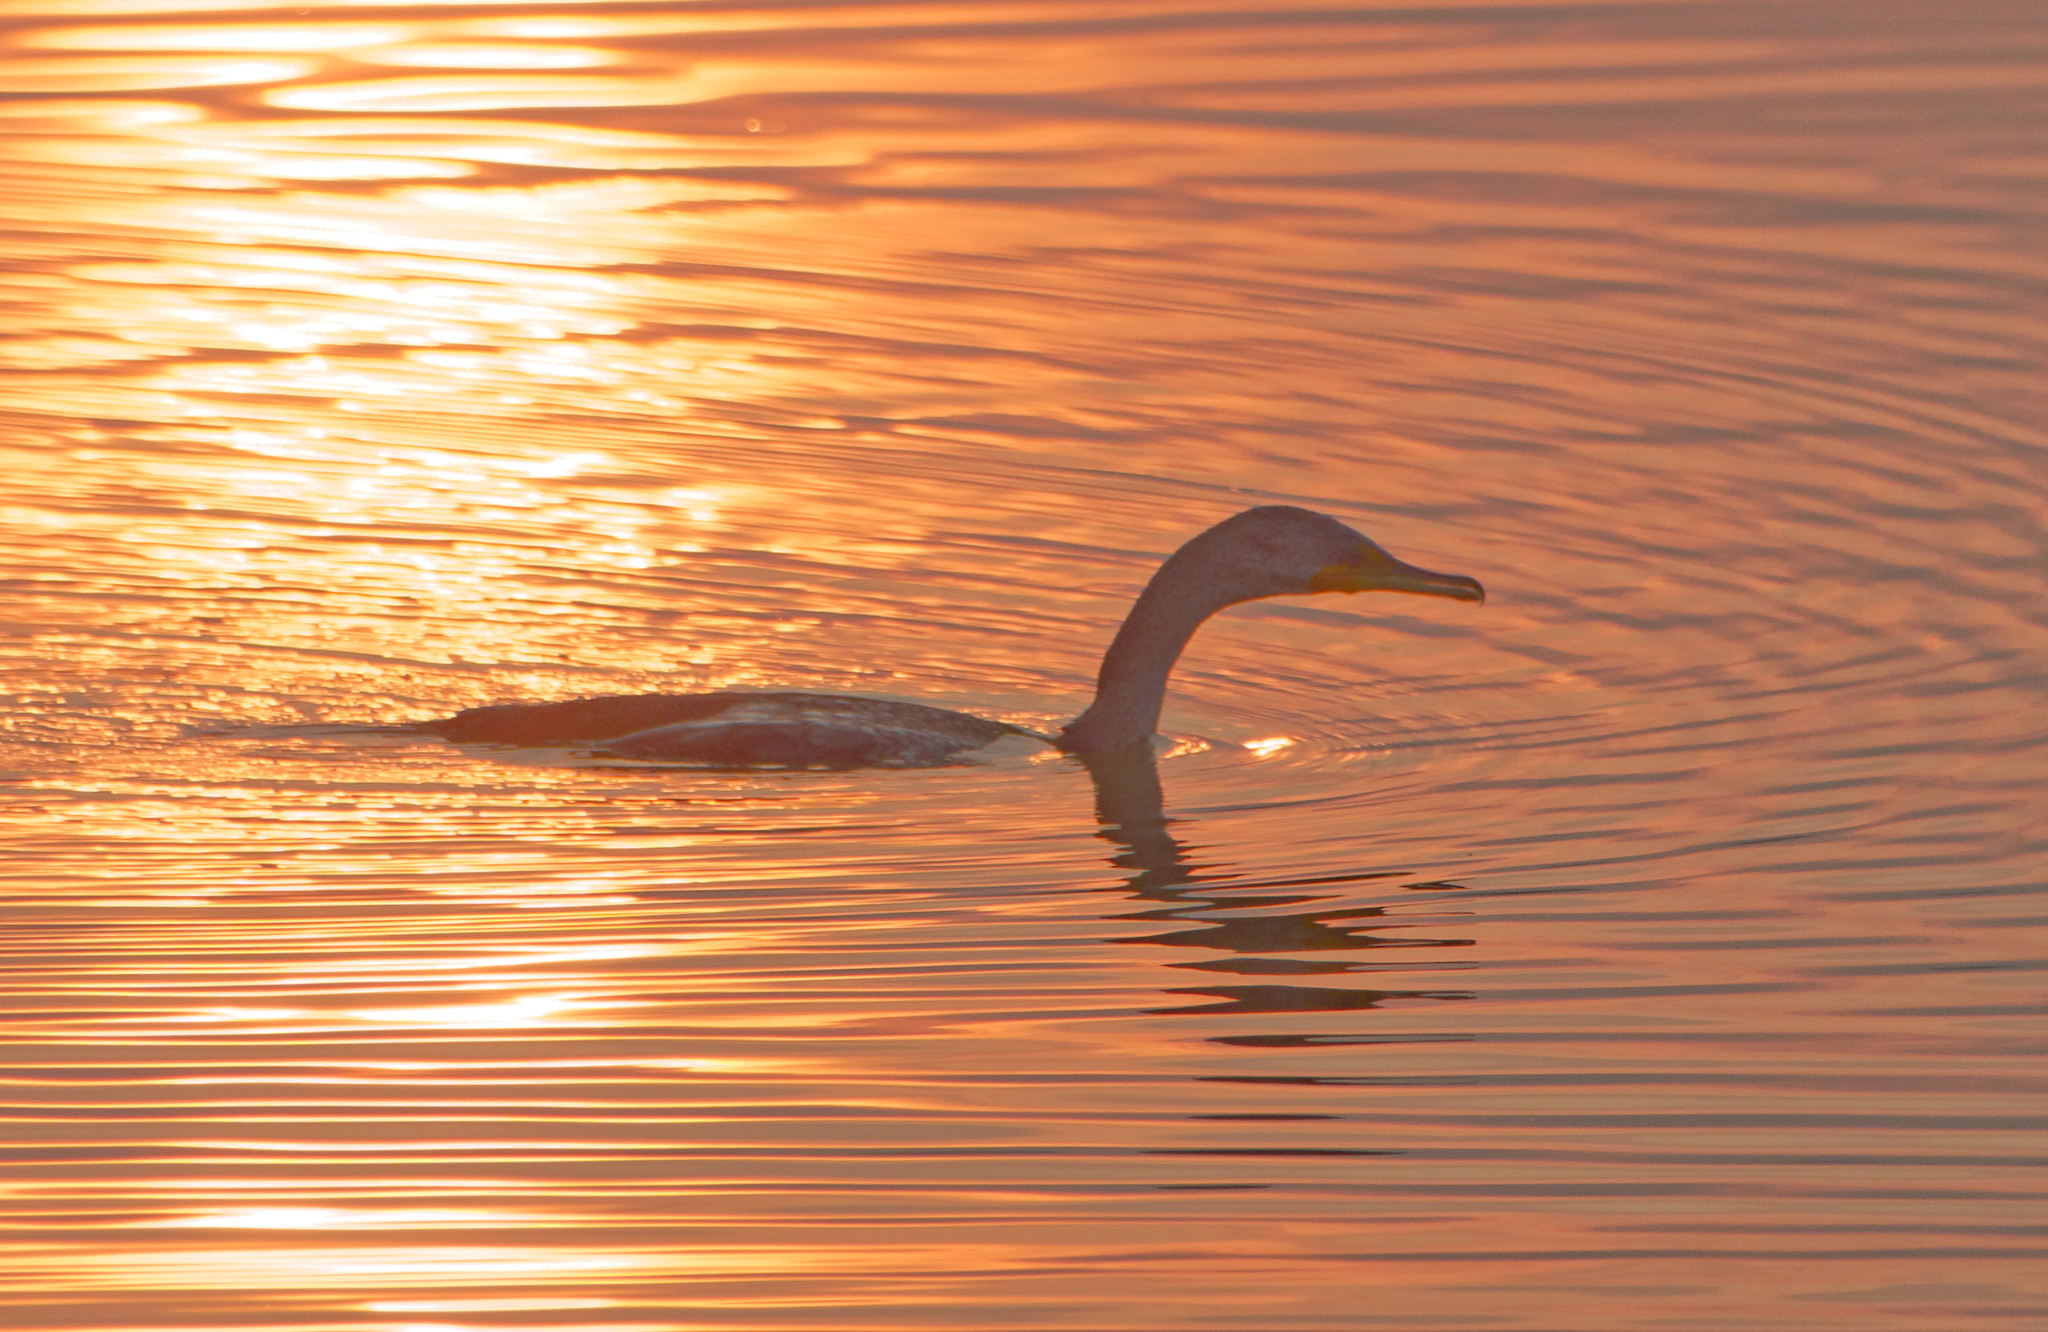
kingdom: Animalia
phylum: Chordata
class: Aves
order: Suliformes
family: Phalacrocoracidae
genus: Phalacrocorax
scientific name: Phalacrocorax auritus
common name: Double-crested cormorant
